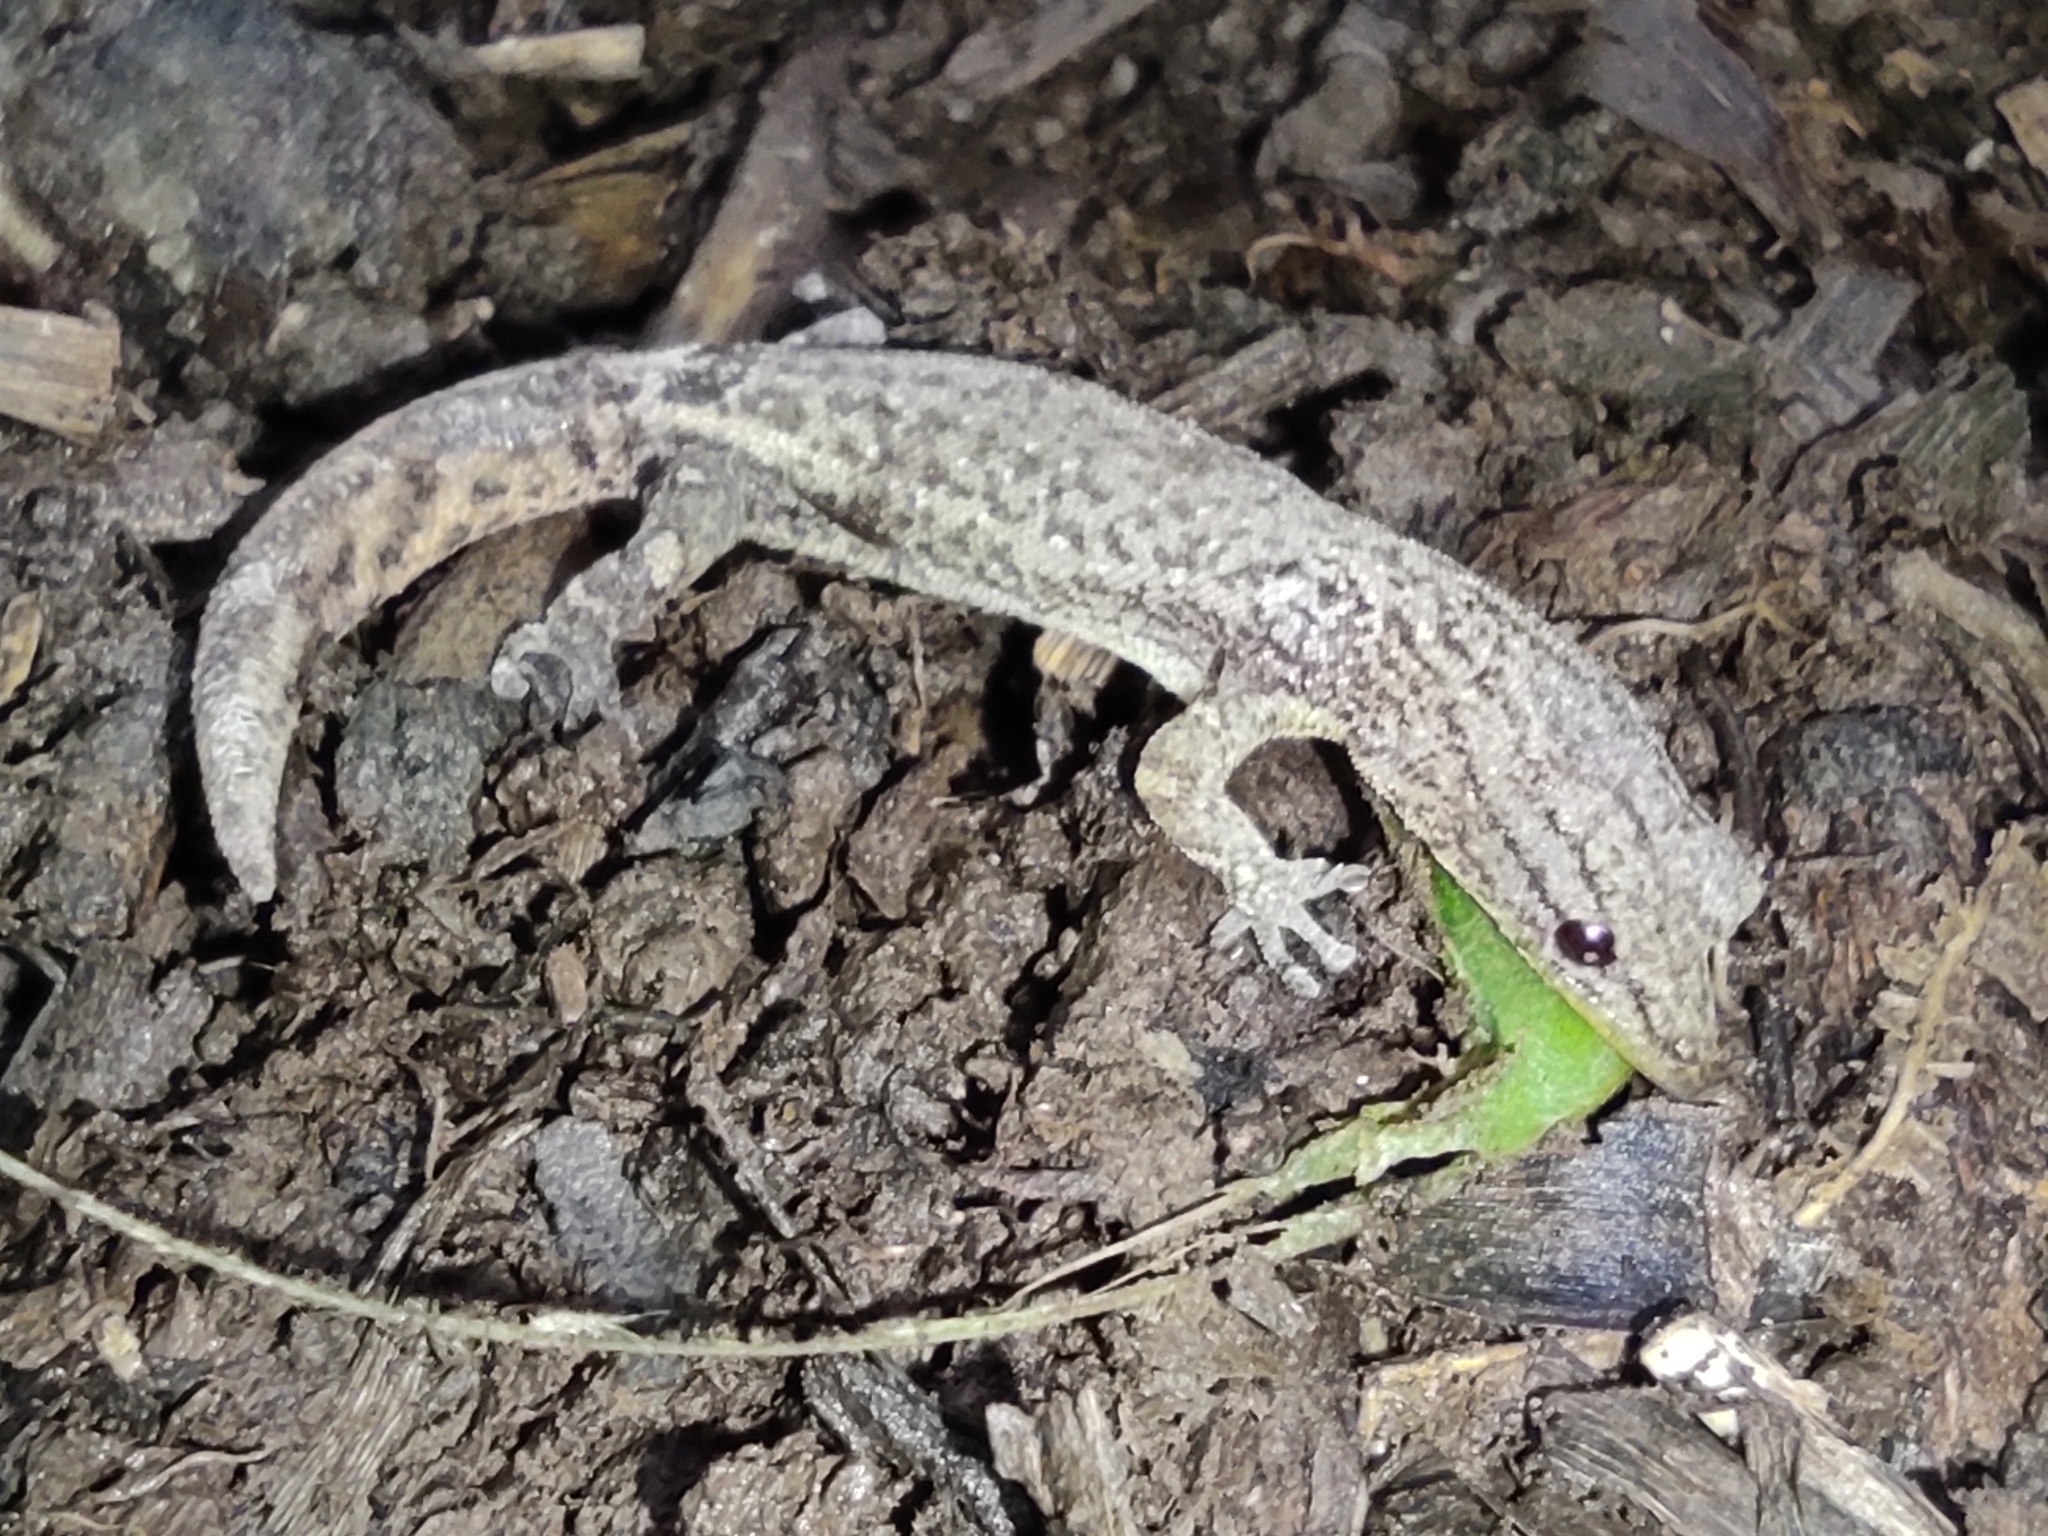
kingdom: Animalia
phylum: Chordata
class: Squamata
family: Gekkonidae
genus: Hemidactylus
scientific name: Hemidactylus frenatus
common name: Common house gecko
